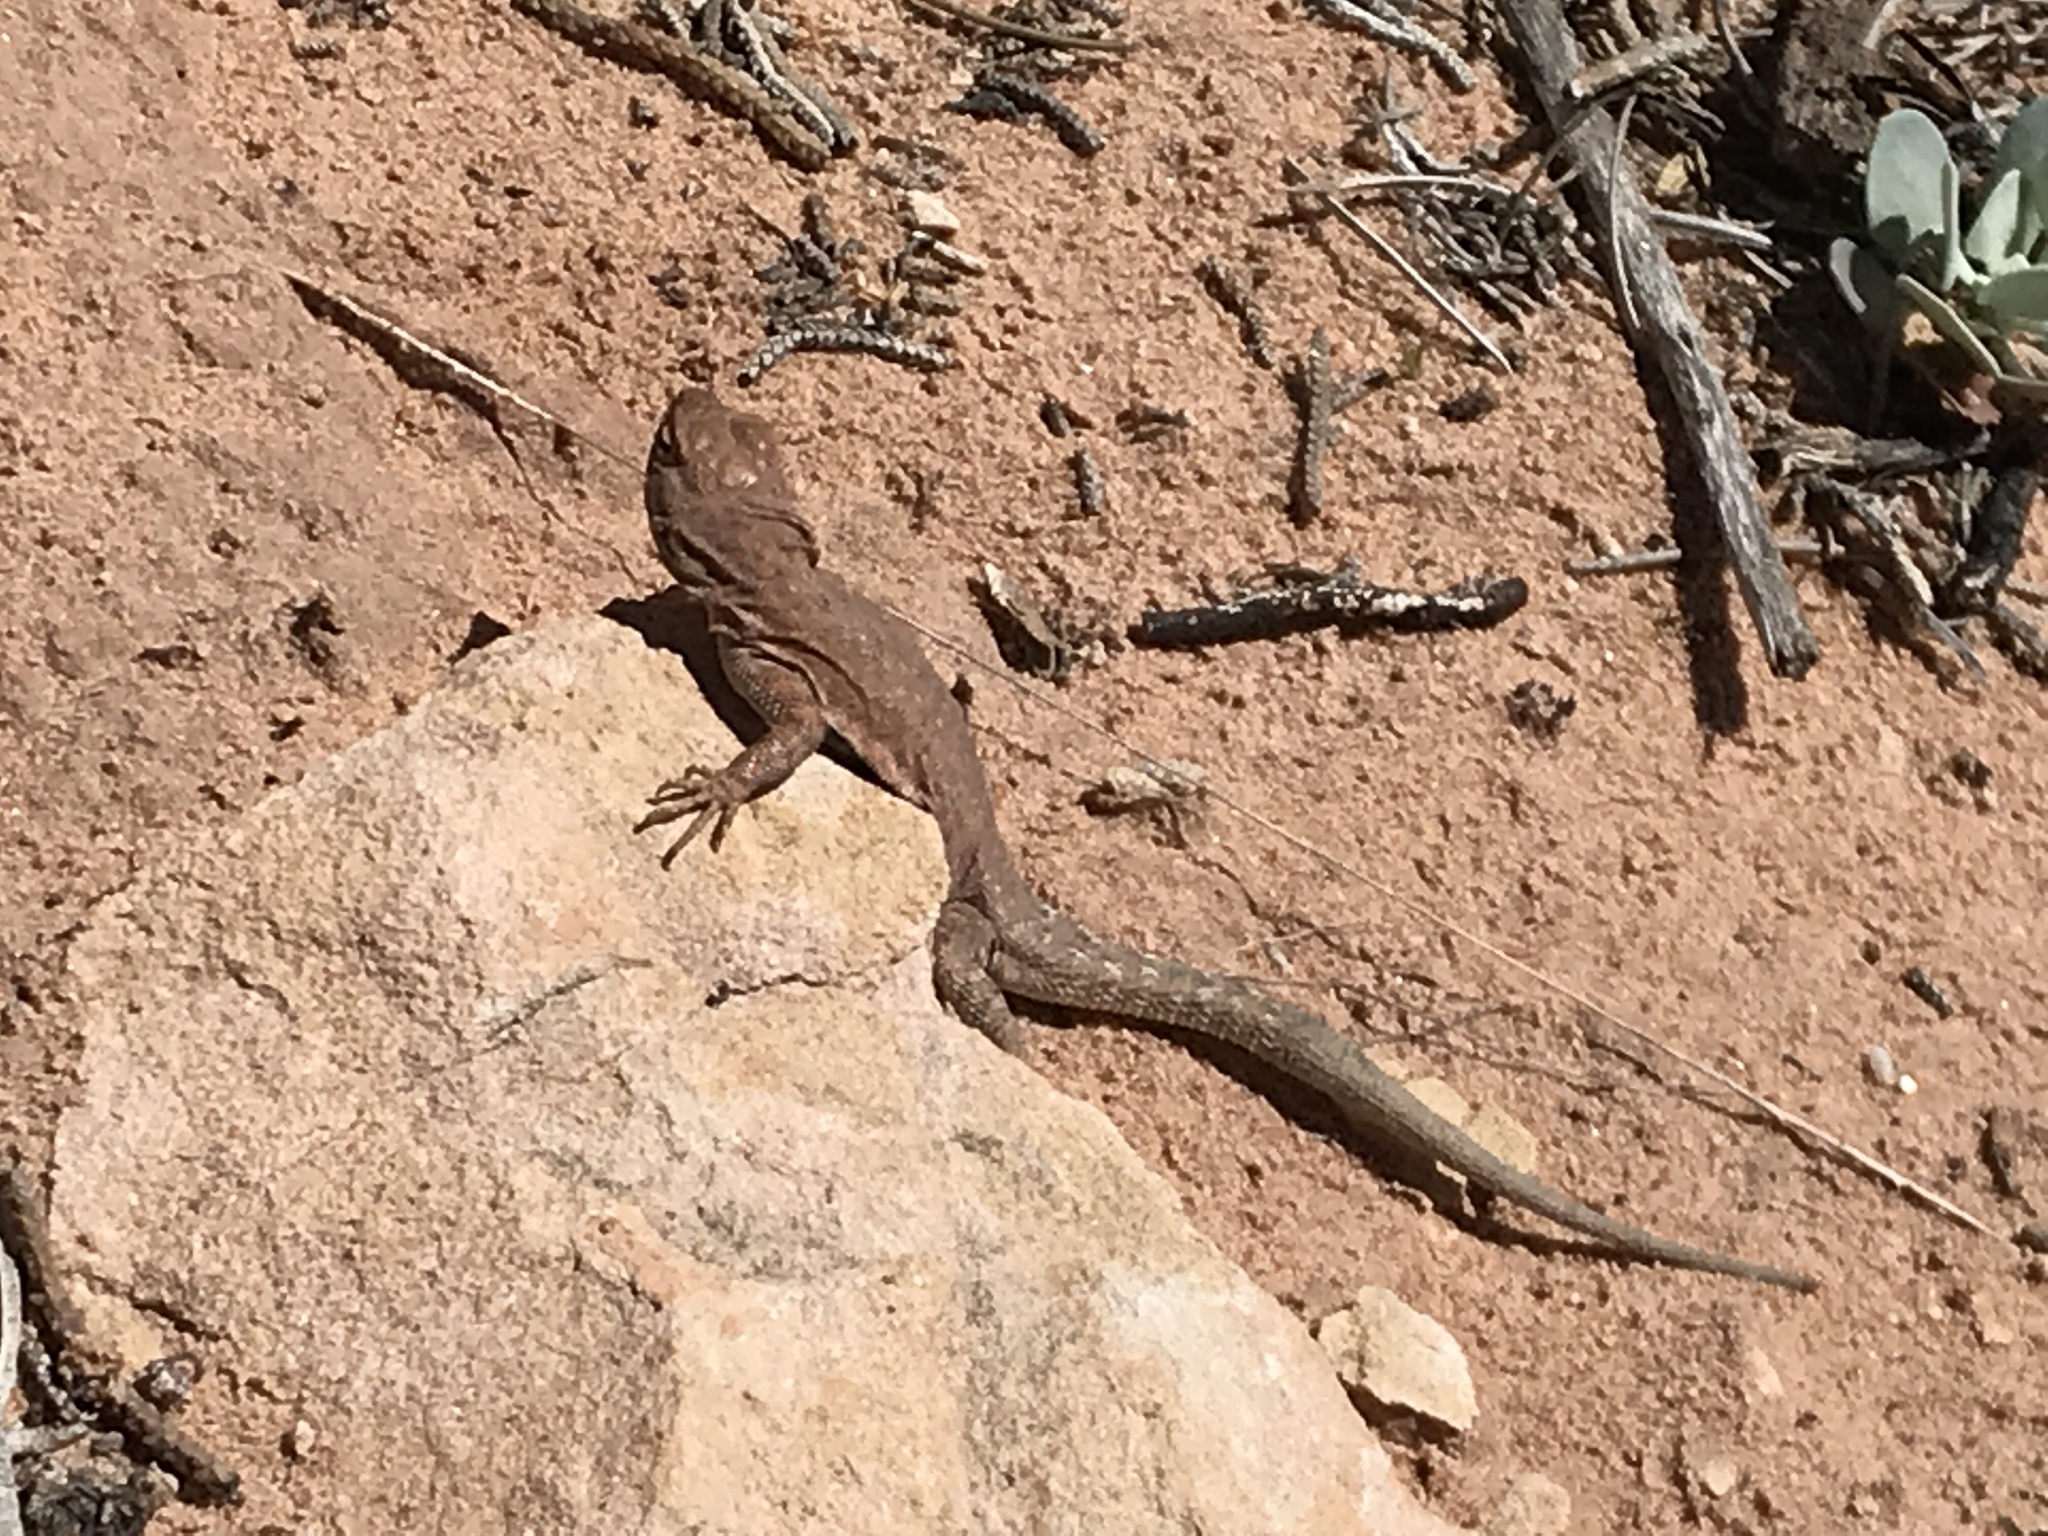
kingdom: Animalia
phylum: Chordata
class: Squamata
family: Phrynosomatidae
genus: Uta
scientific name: Uta stansburiana
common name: Side-blotched lizard
